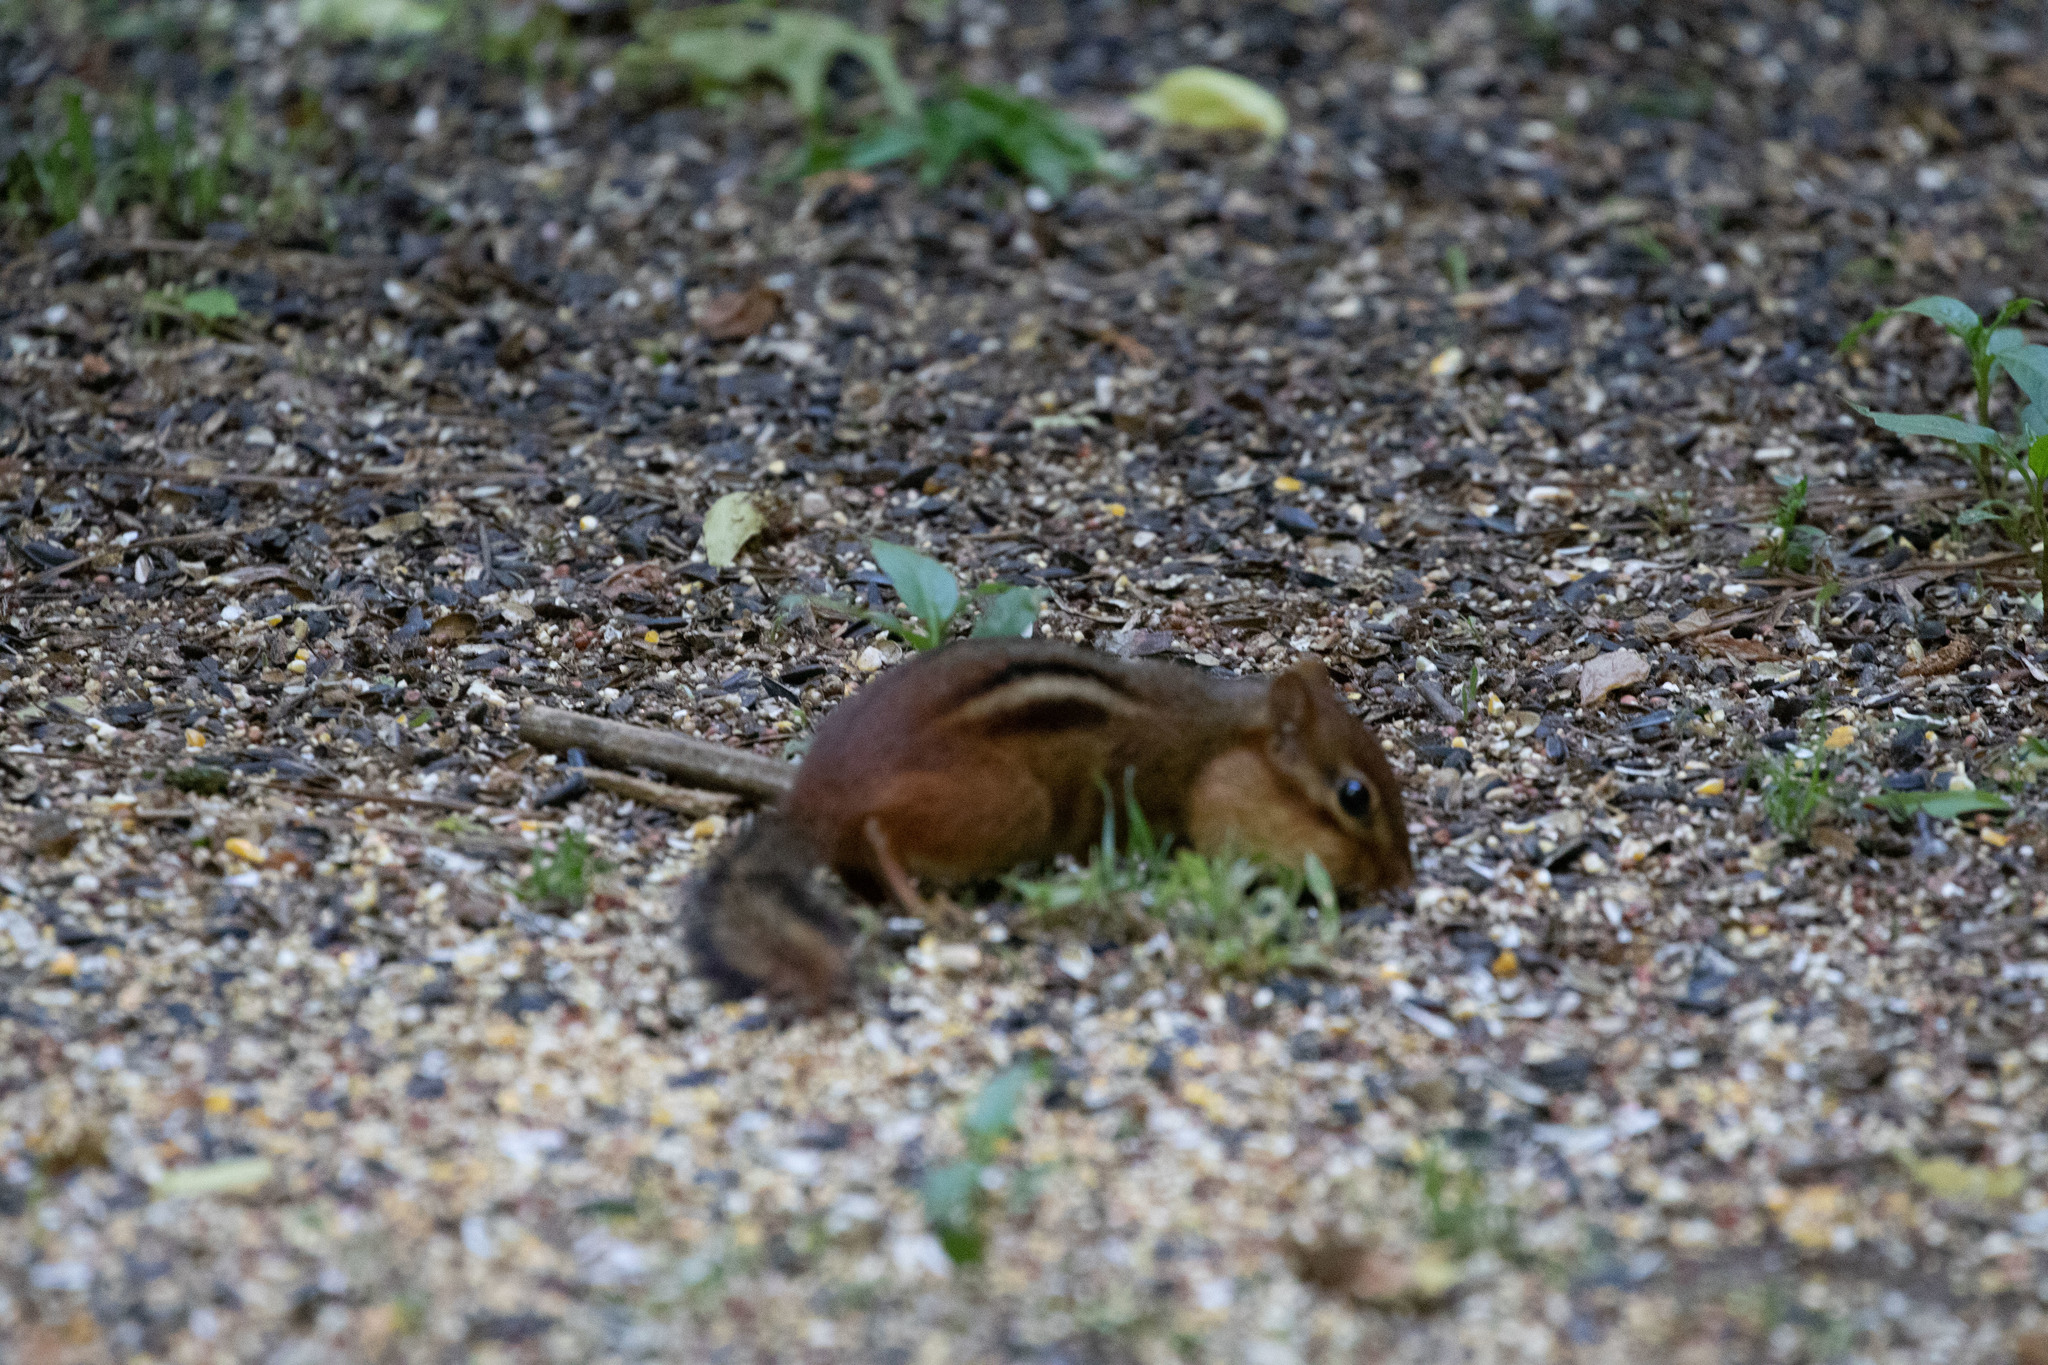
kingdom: Animalia
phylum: Chordata
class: Mammalia
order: Rodentia
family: Sciuridae
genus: Tamias
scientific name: Tamias striatus
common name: Eastern chipmunk
